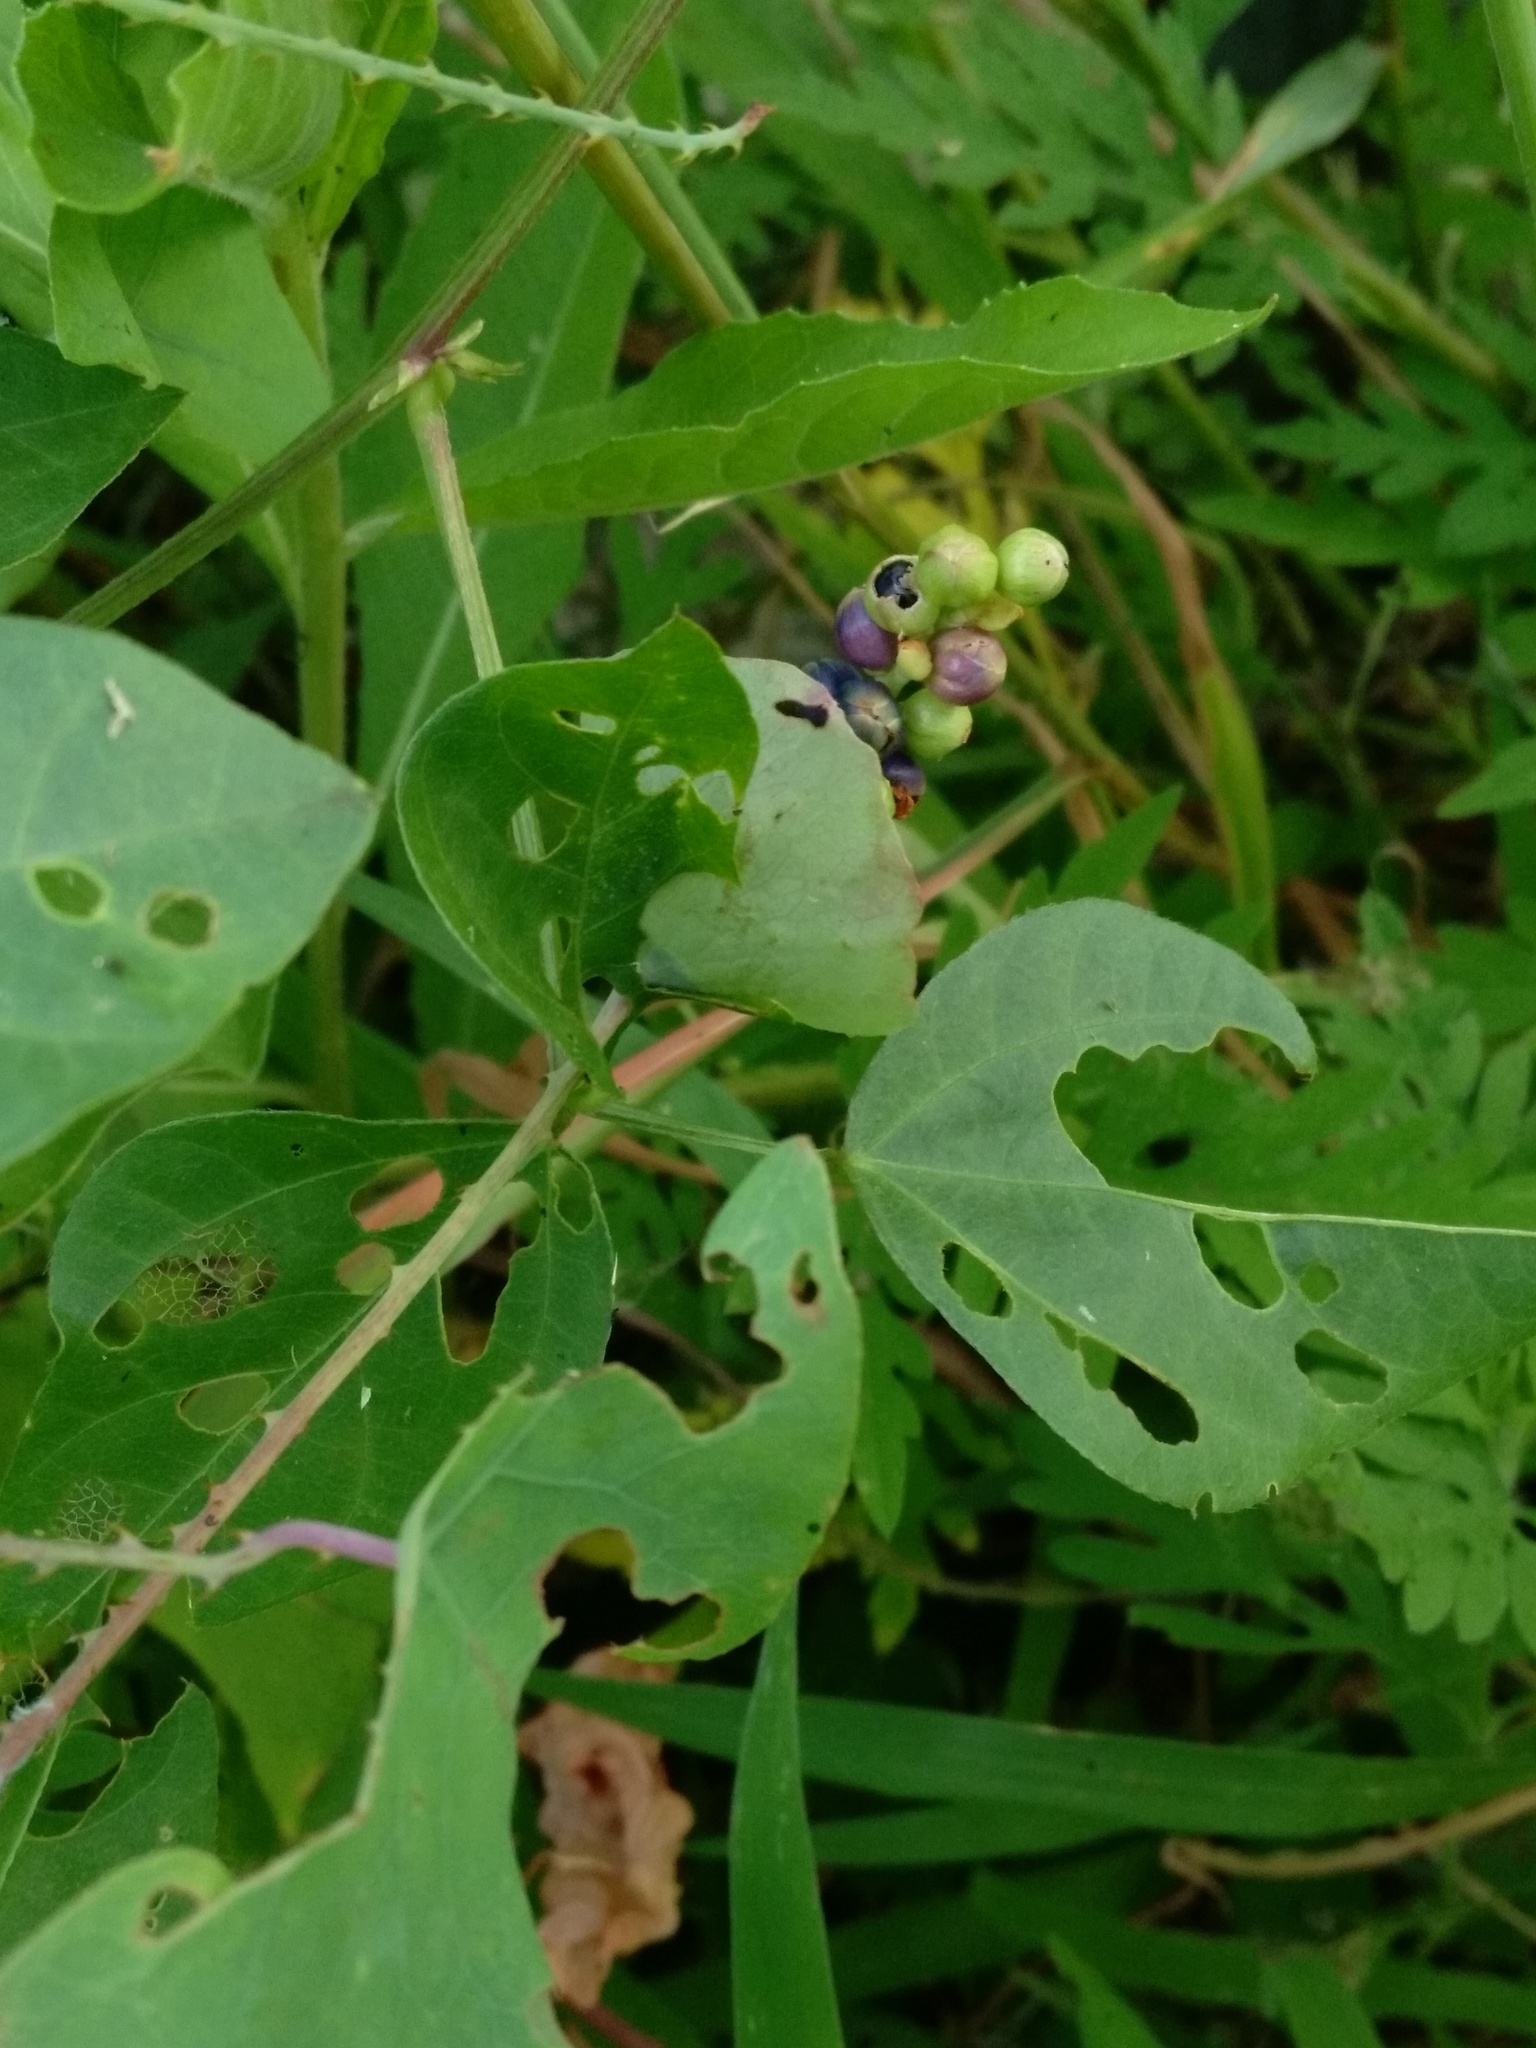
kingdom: Plantae
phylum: Tracheophyta
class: Magnoliopsida
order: Caryophyllales
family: Polygonaceae
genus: Persicaria
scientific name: Persicaria perfoliata
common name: Asiatic tearthumb
